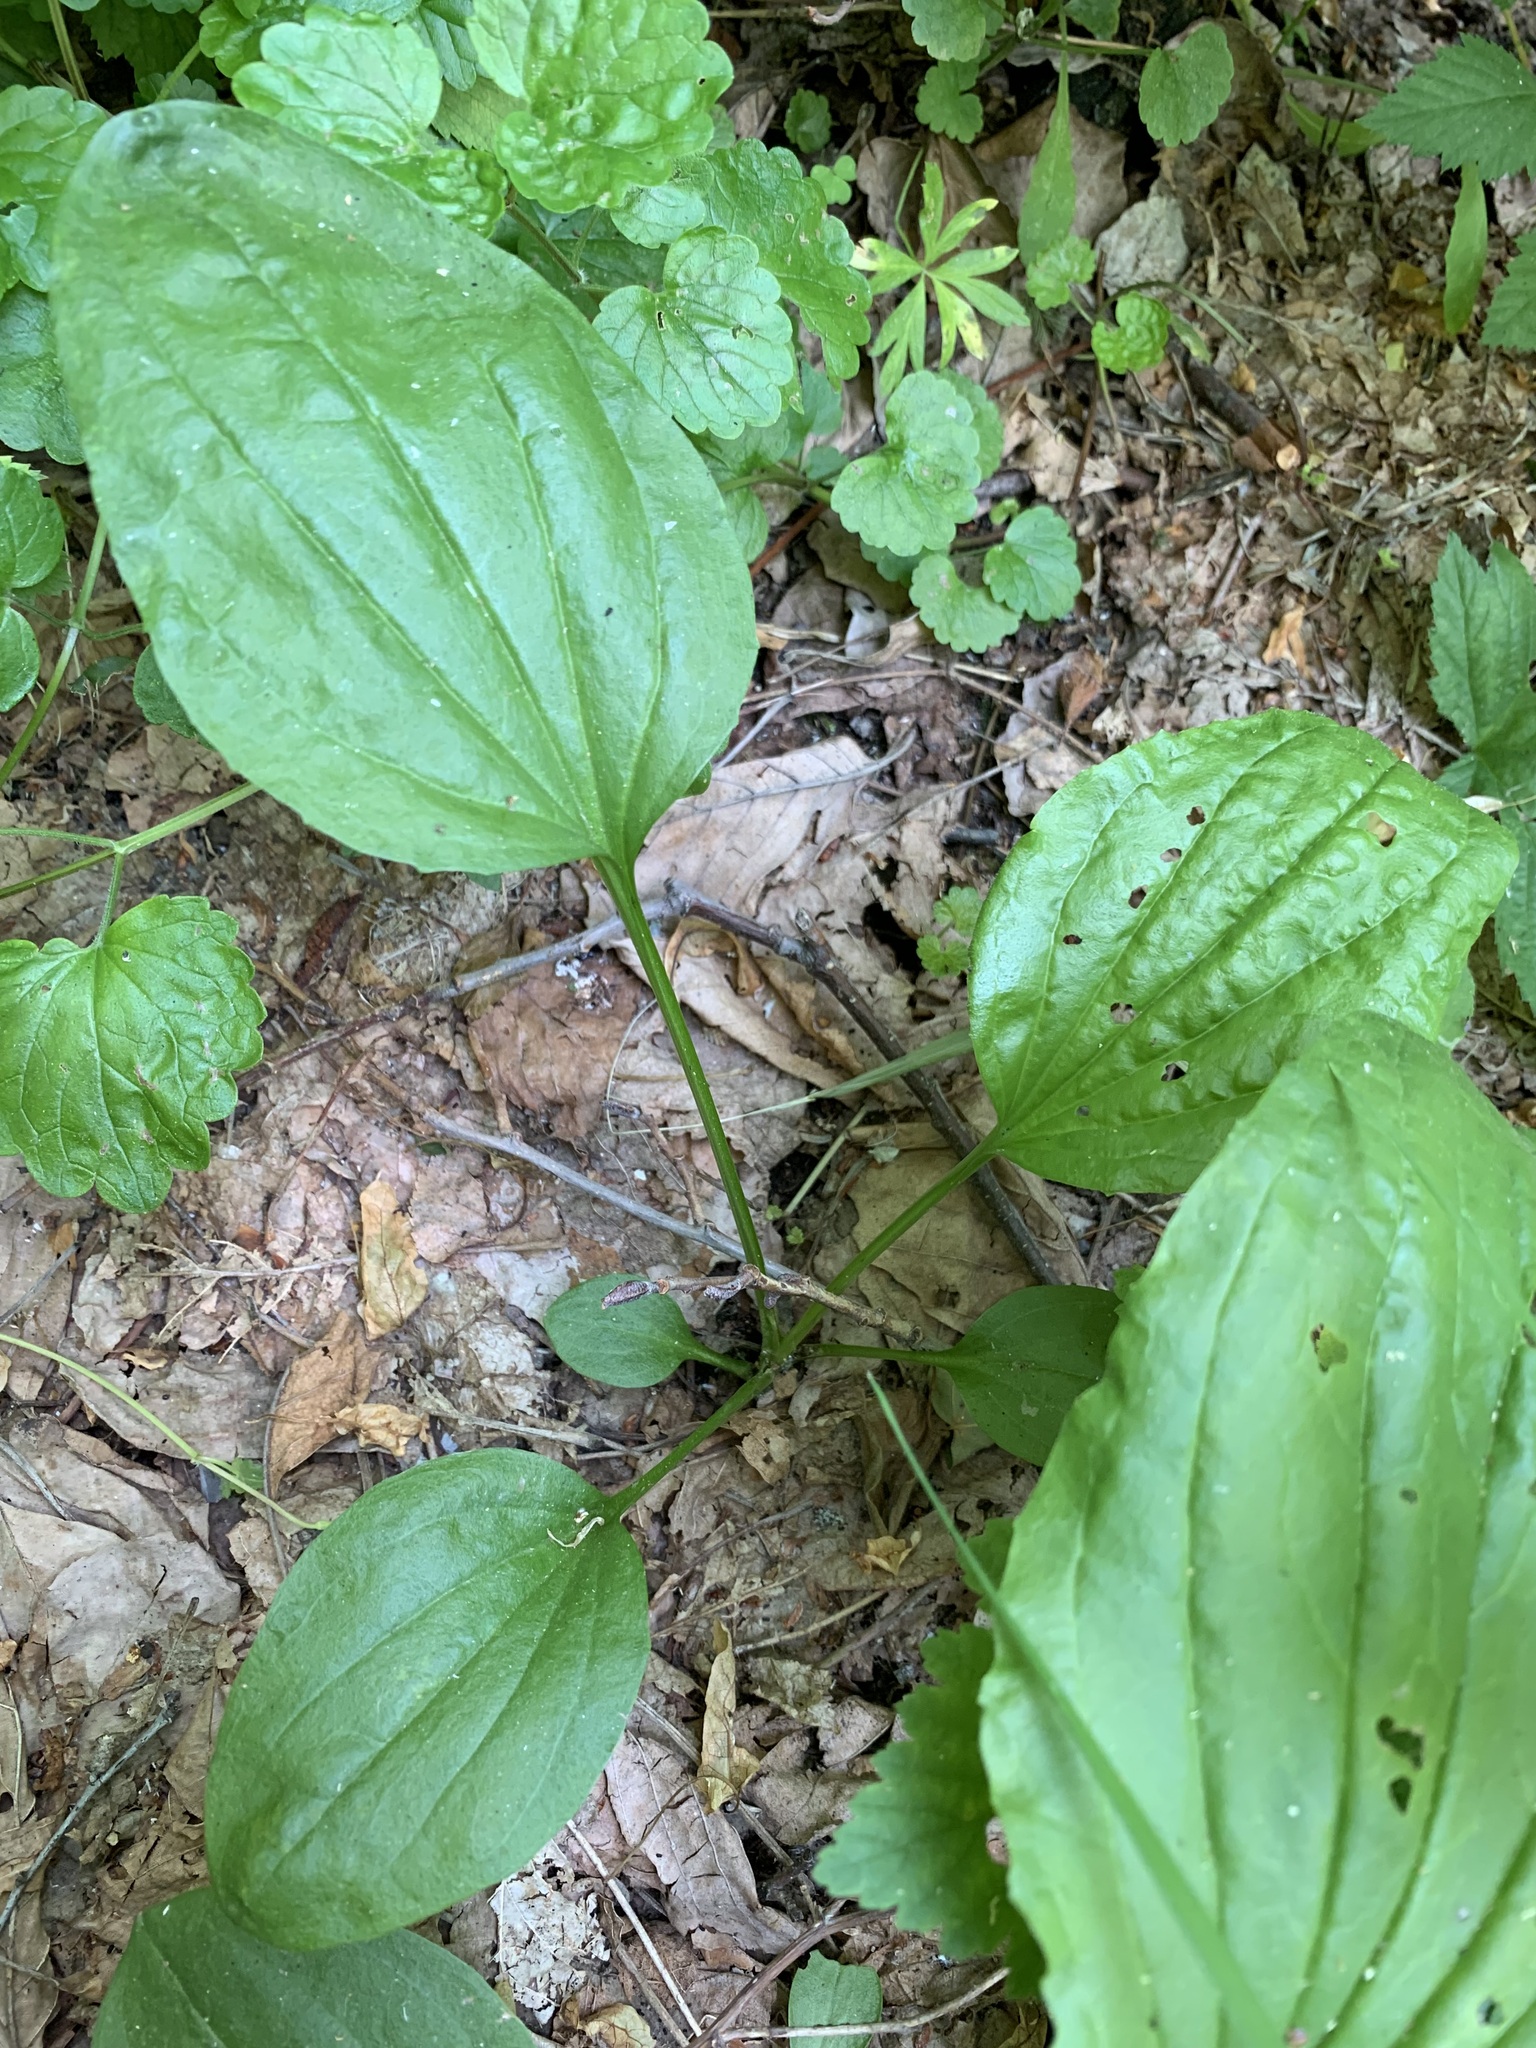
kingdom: Plantae
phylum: Tracheophyta
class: Magnoliopsida
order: Lamiales
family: Plantaginaceae
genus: Plantago
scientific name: Plantago major
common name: Common plantain
